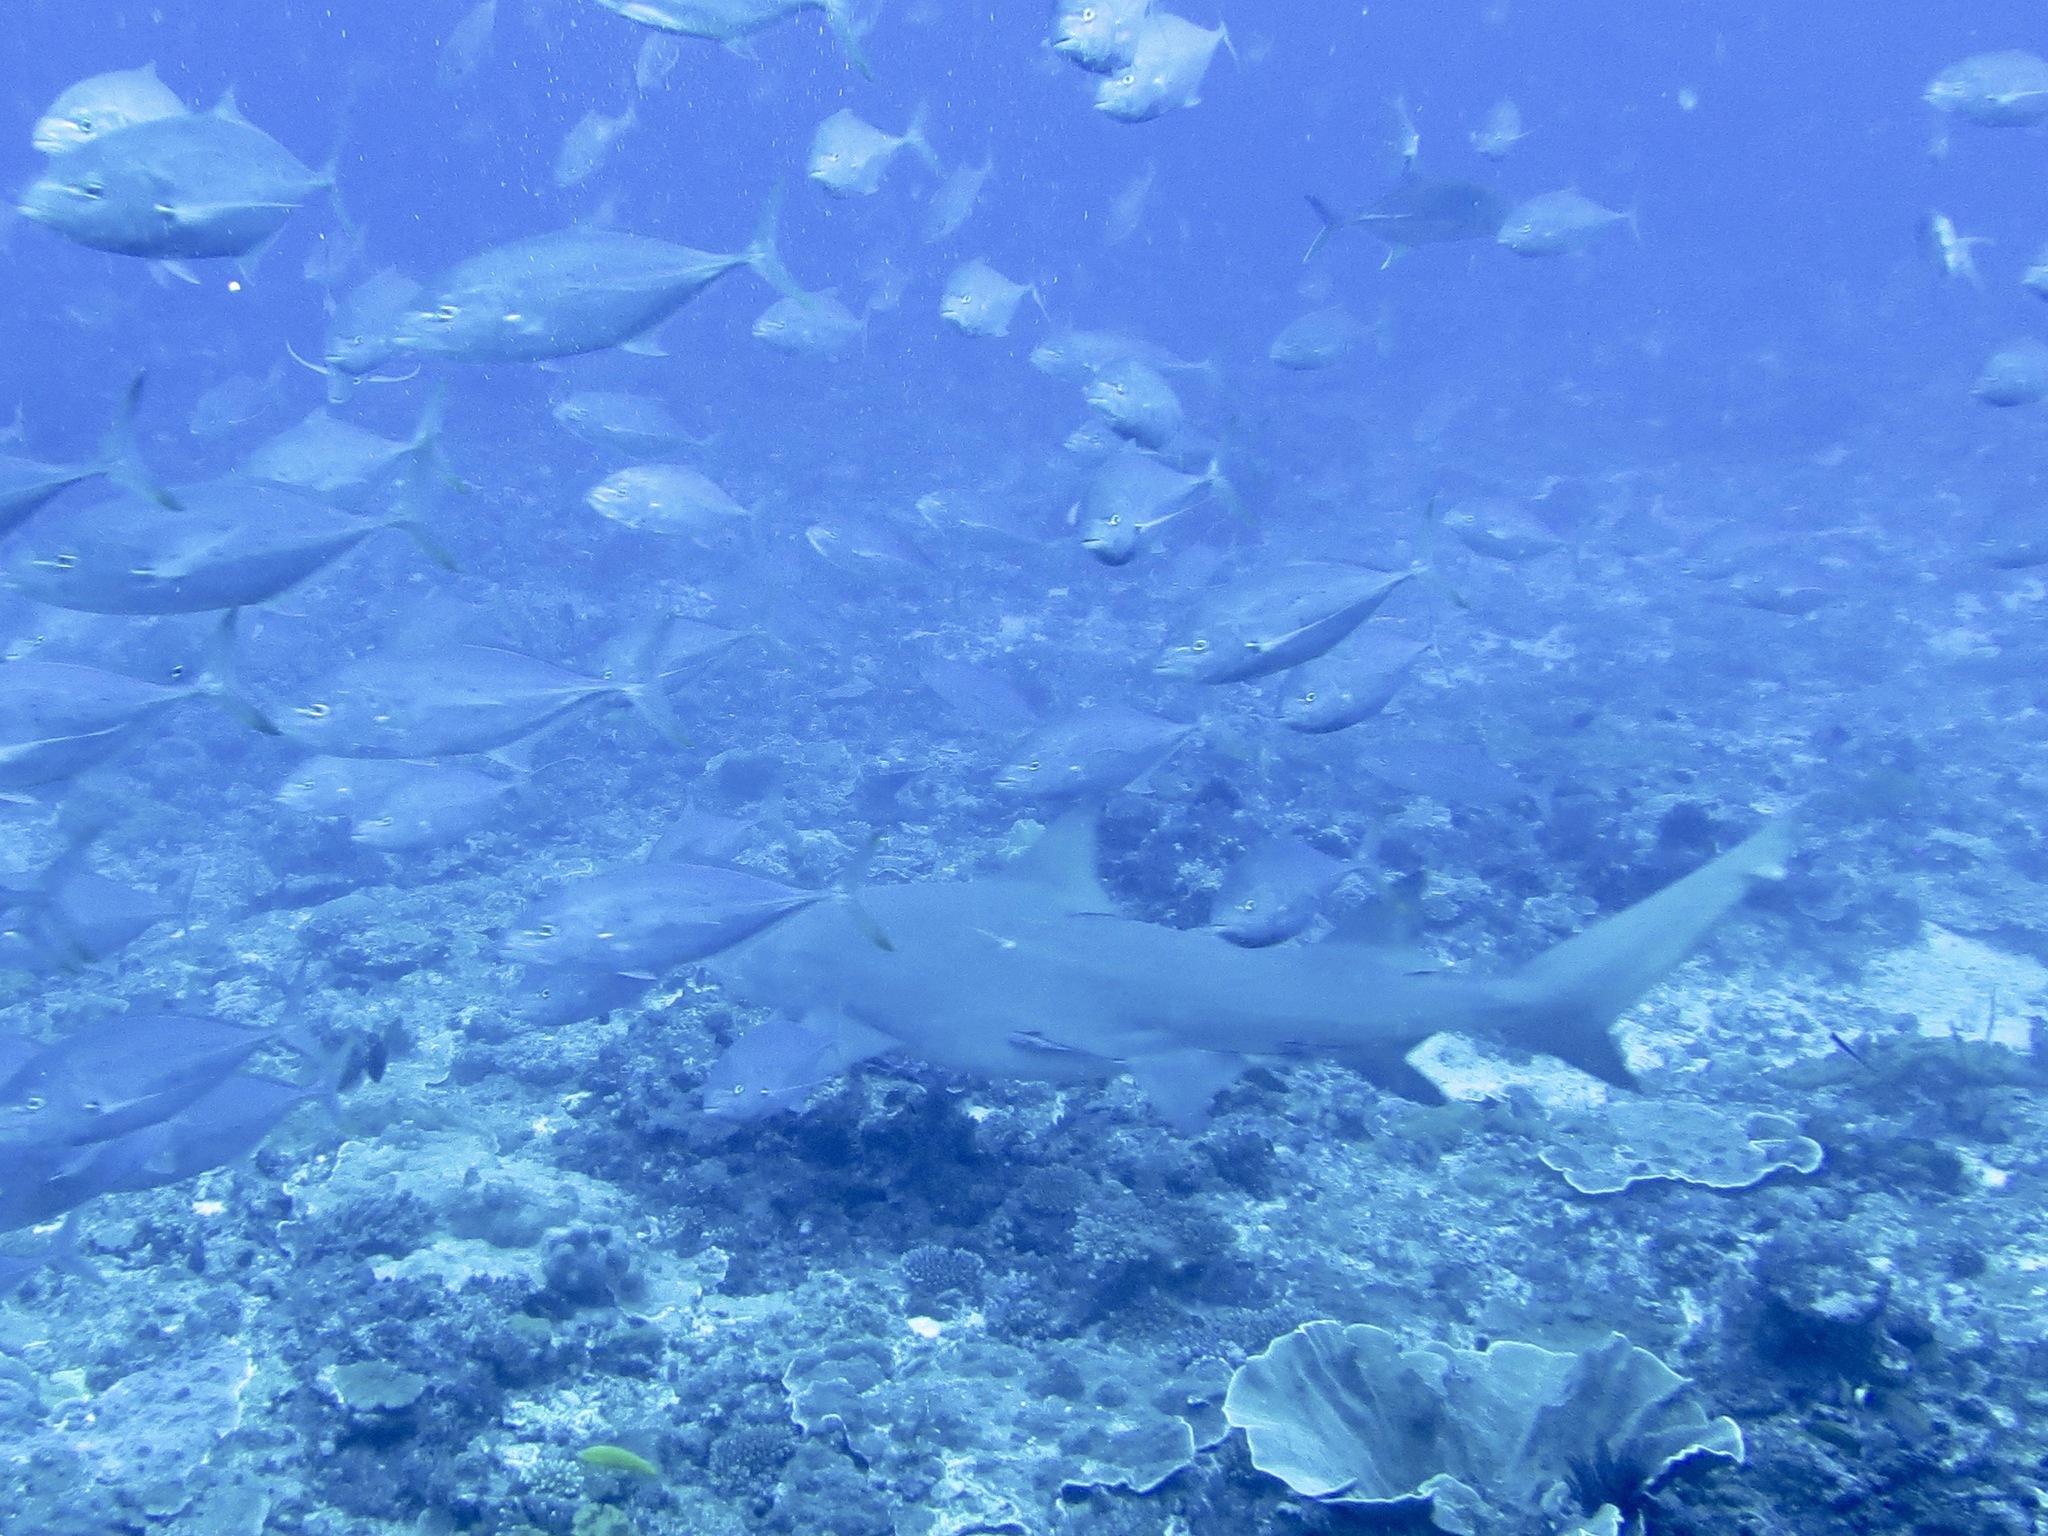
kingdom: Animalia
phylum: Chordata
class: Elasmobranchii
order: Carcharhiniformes
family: Carcharhinidae
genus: Negaprion
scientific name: Negaprion acutidens
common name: Lemon shark
